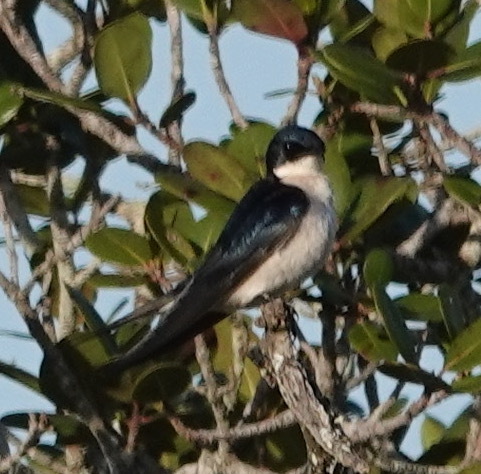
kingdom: Animalia
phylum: Chordata
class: Aves
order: Passeriformes
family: Hirundinidae
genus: Hirundo
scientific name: Hirundo dimidiata
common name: Pearl-breasted swallow
